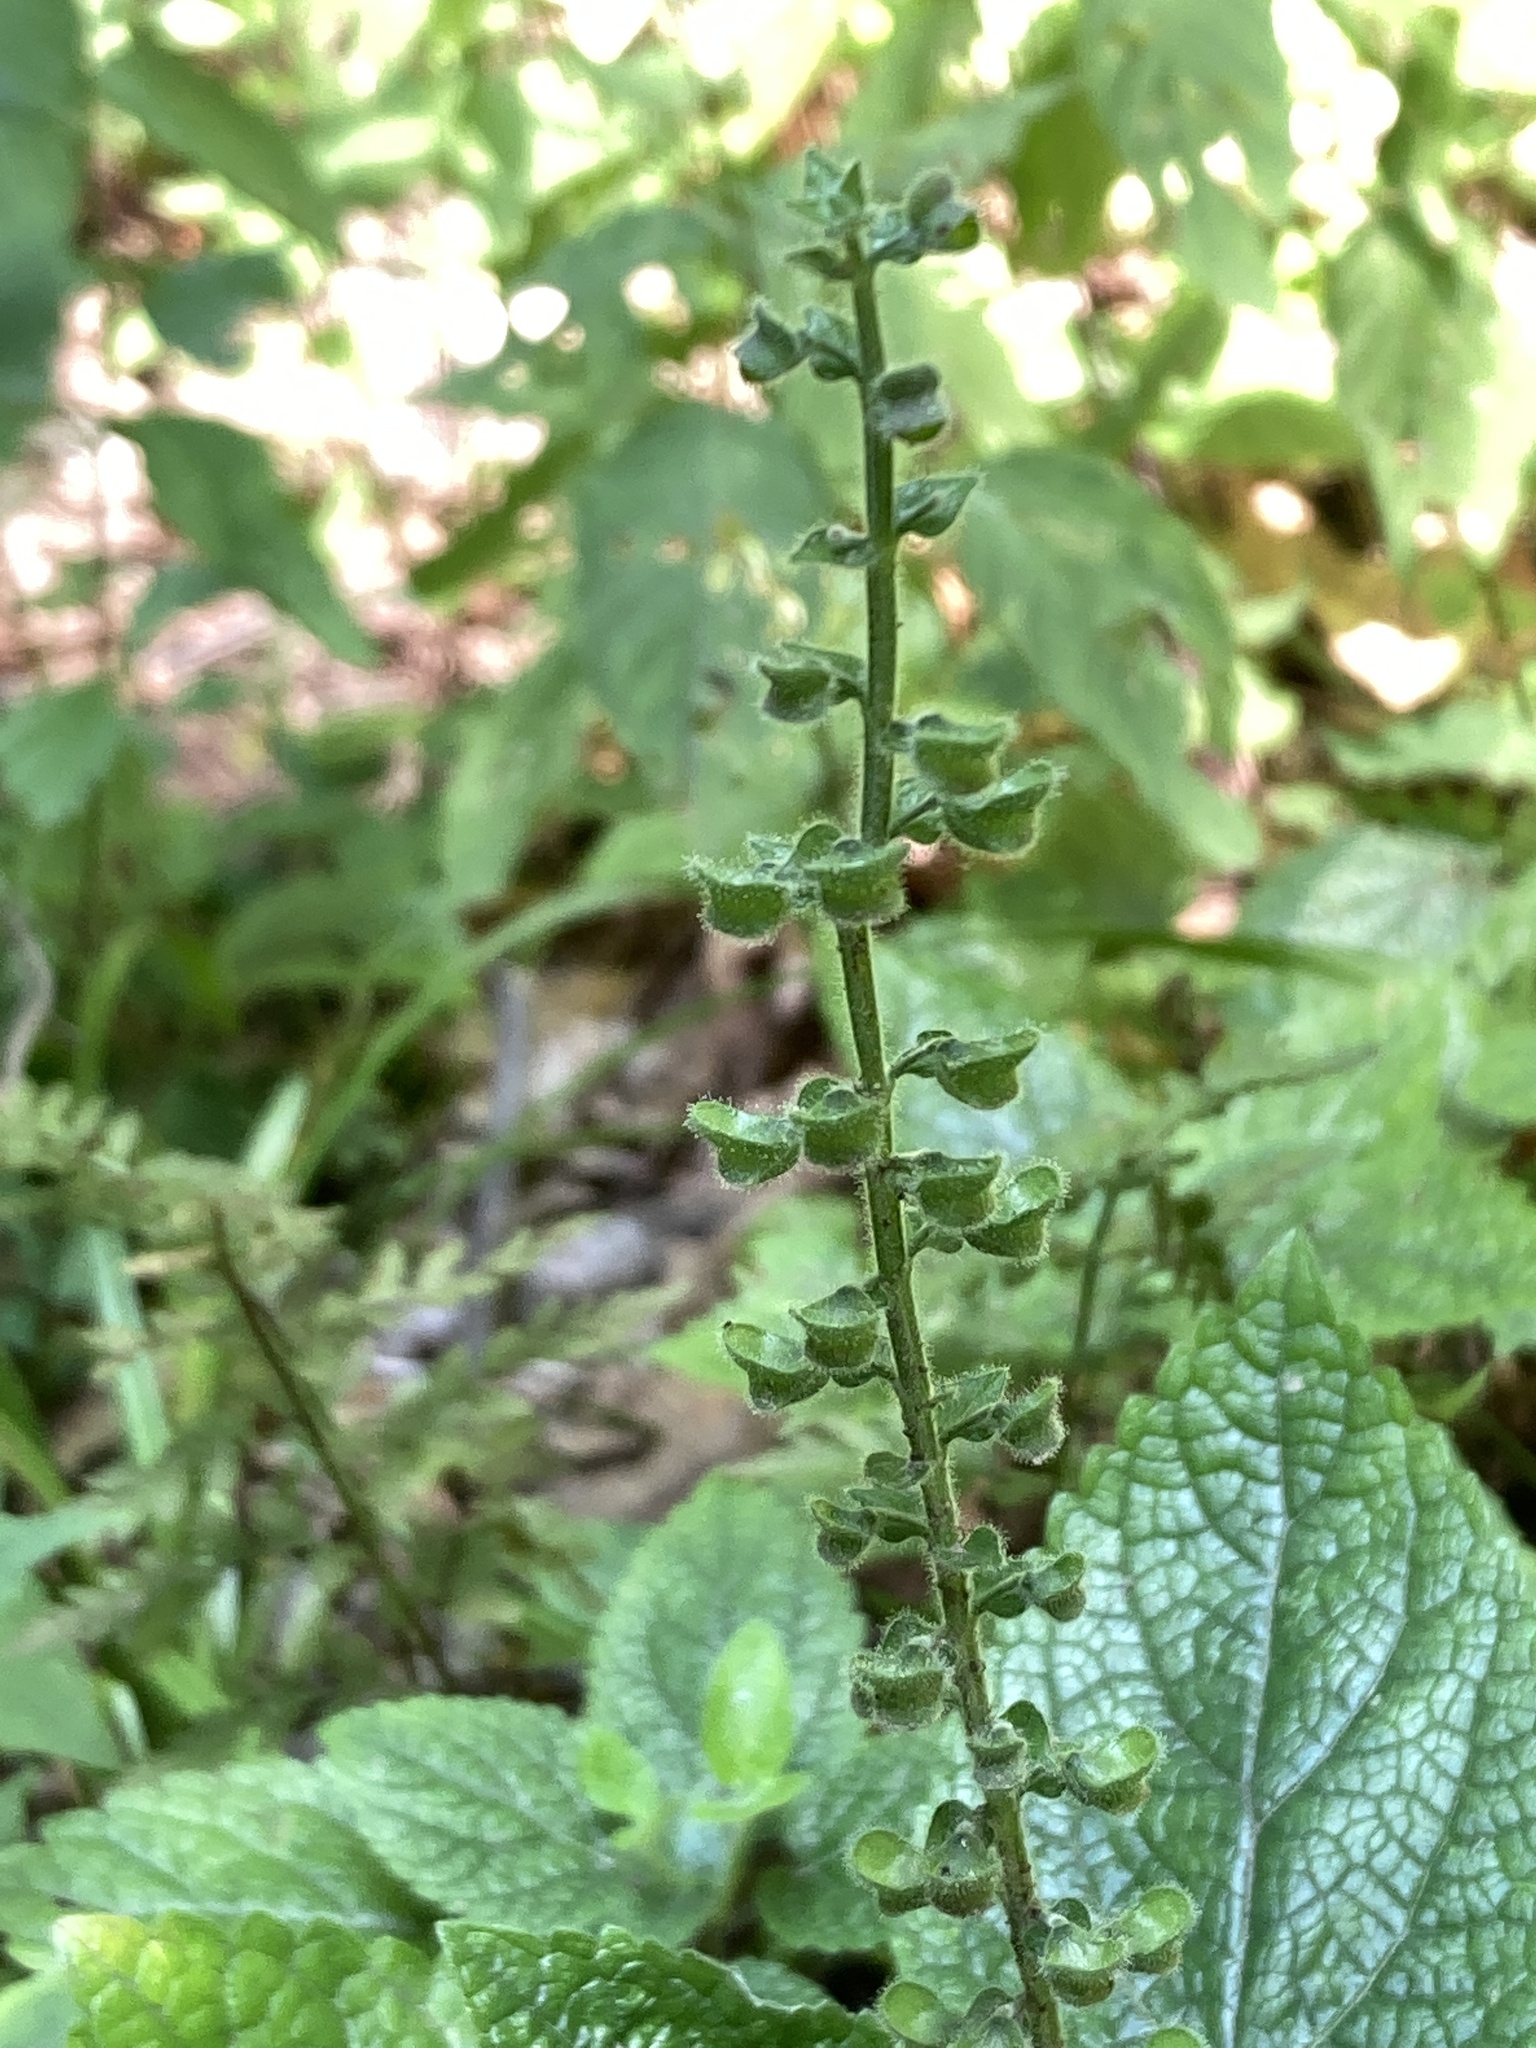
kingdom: Plantae
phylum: Tracheophyta
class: Magnoliopsida
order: Lamiales
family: Lamiaceae
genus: Scutellaria
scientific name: Scutellaria ovata
